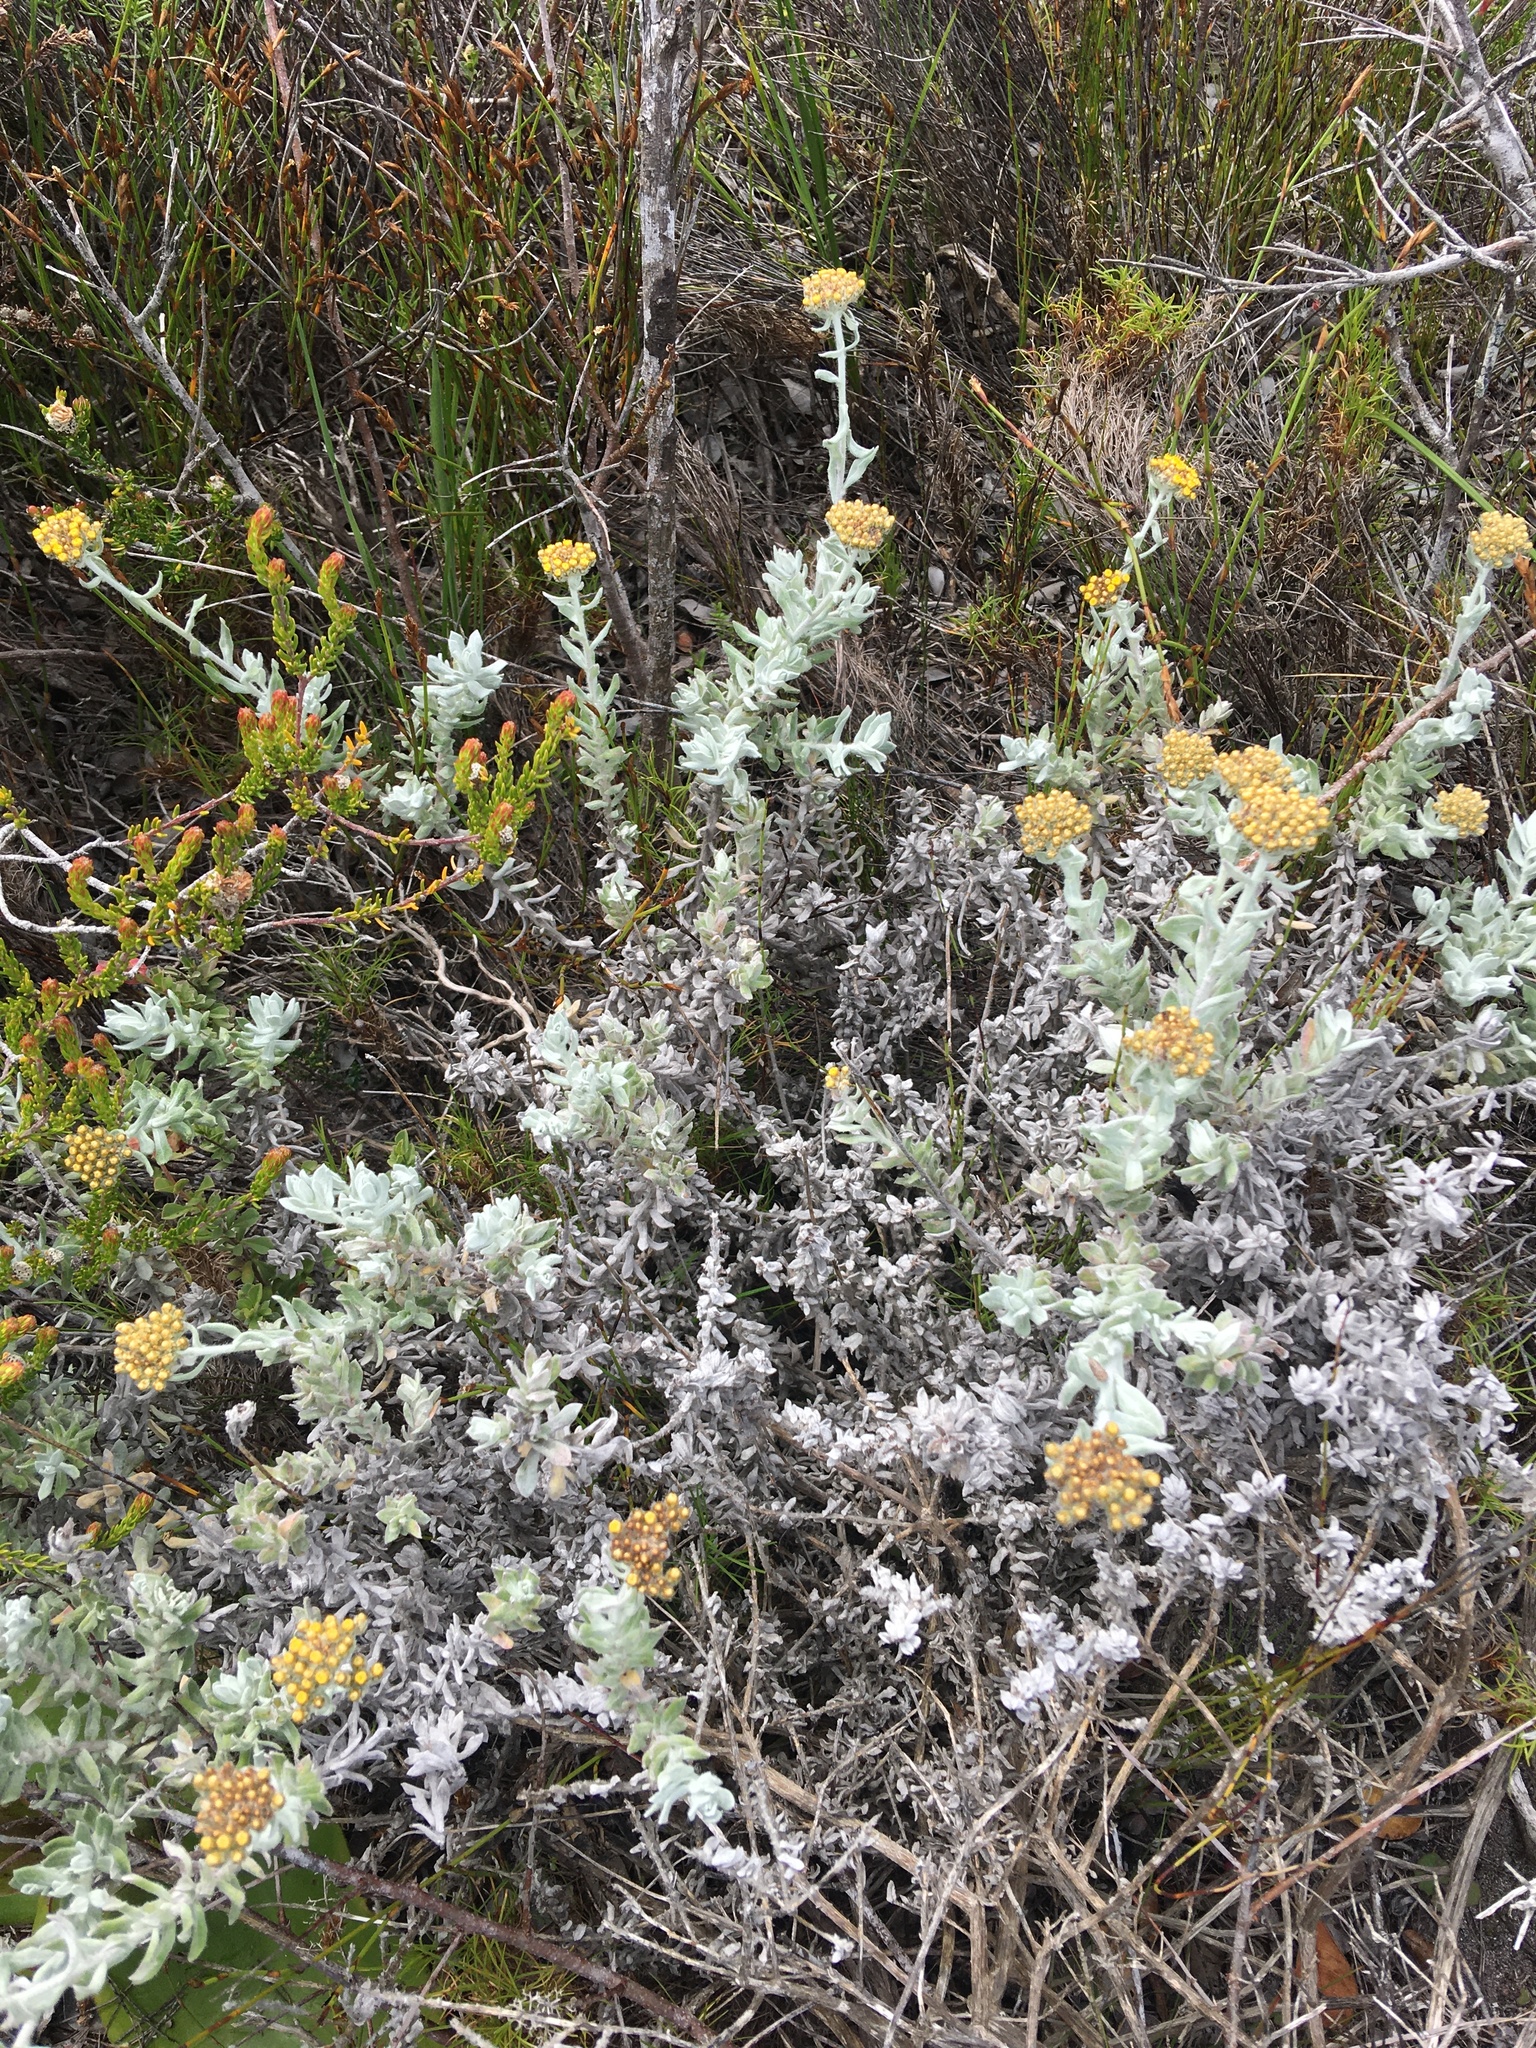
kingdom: Plantae
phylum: Tracheophyta
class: Magnoliopsida
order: Asterales
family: Asteraceae
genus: Helichrysum
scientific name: Helichrysum dasyanthum
